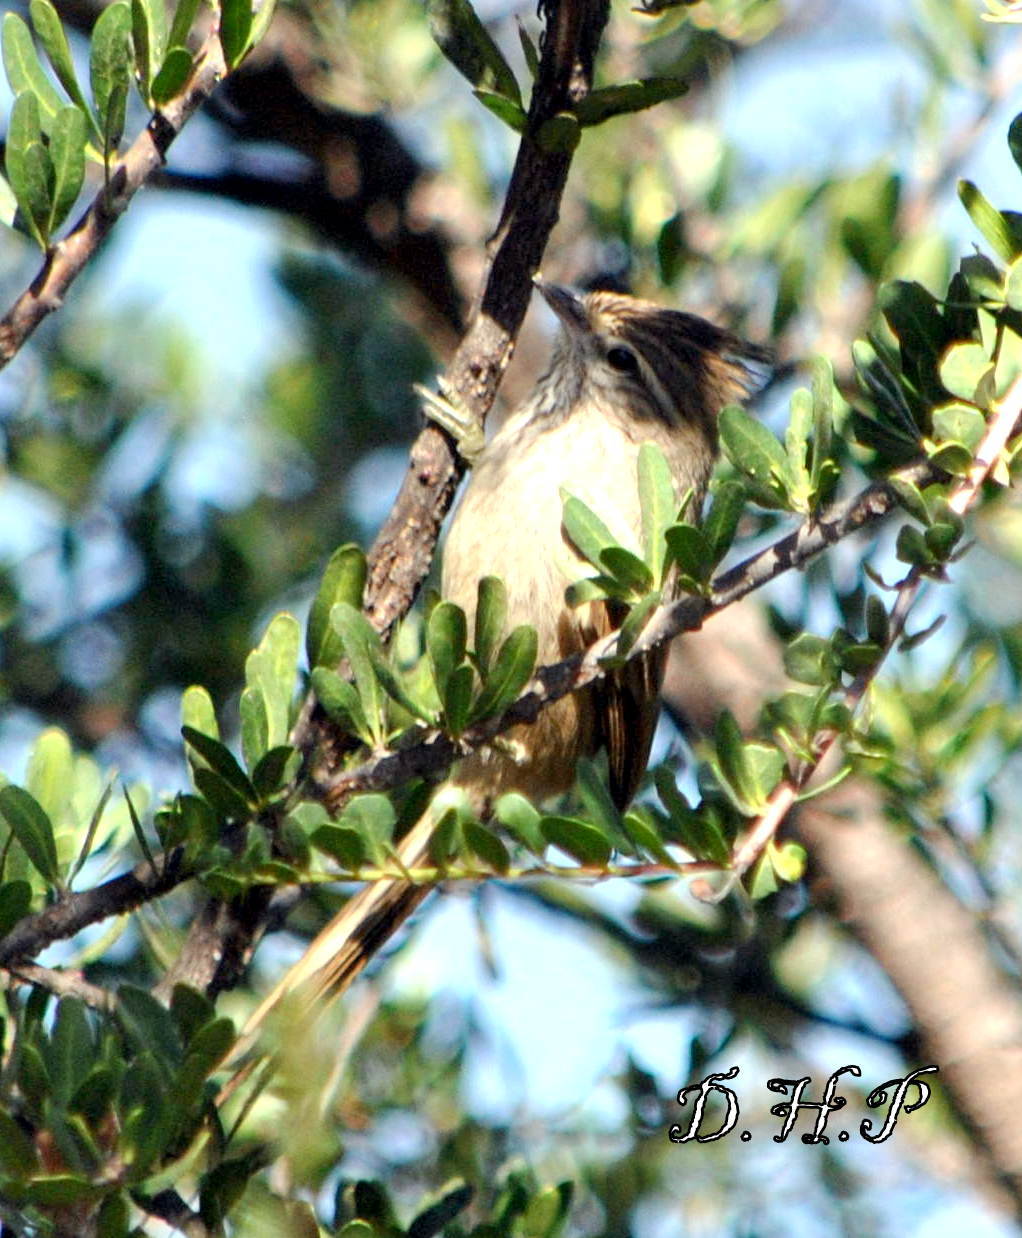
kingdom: Animalia
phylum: Chordata
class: Aves
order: Passeriformes
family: Furnariidae
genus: Leptasthenura
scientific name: Leptasthenura platensis
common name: Tufted tit-spinetail
